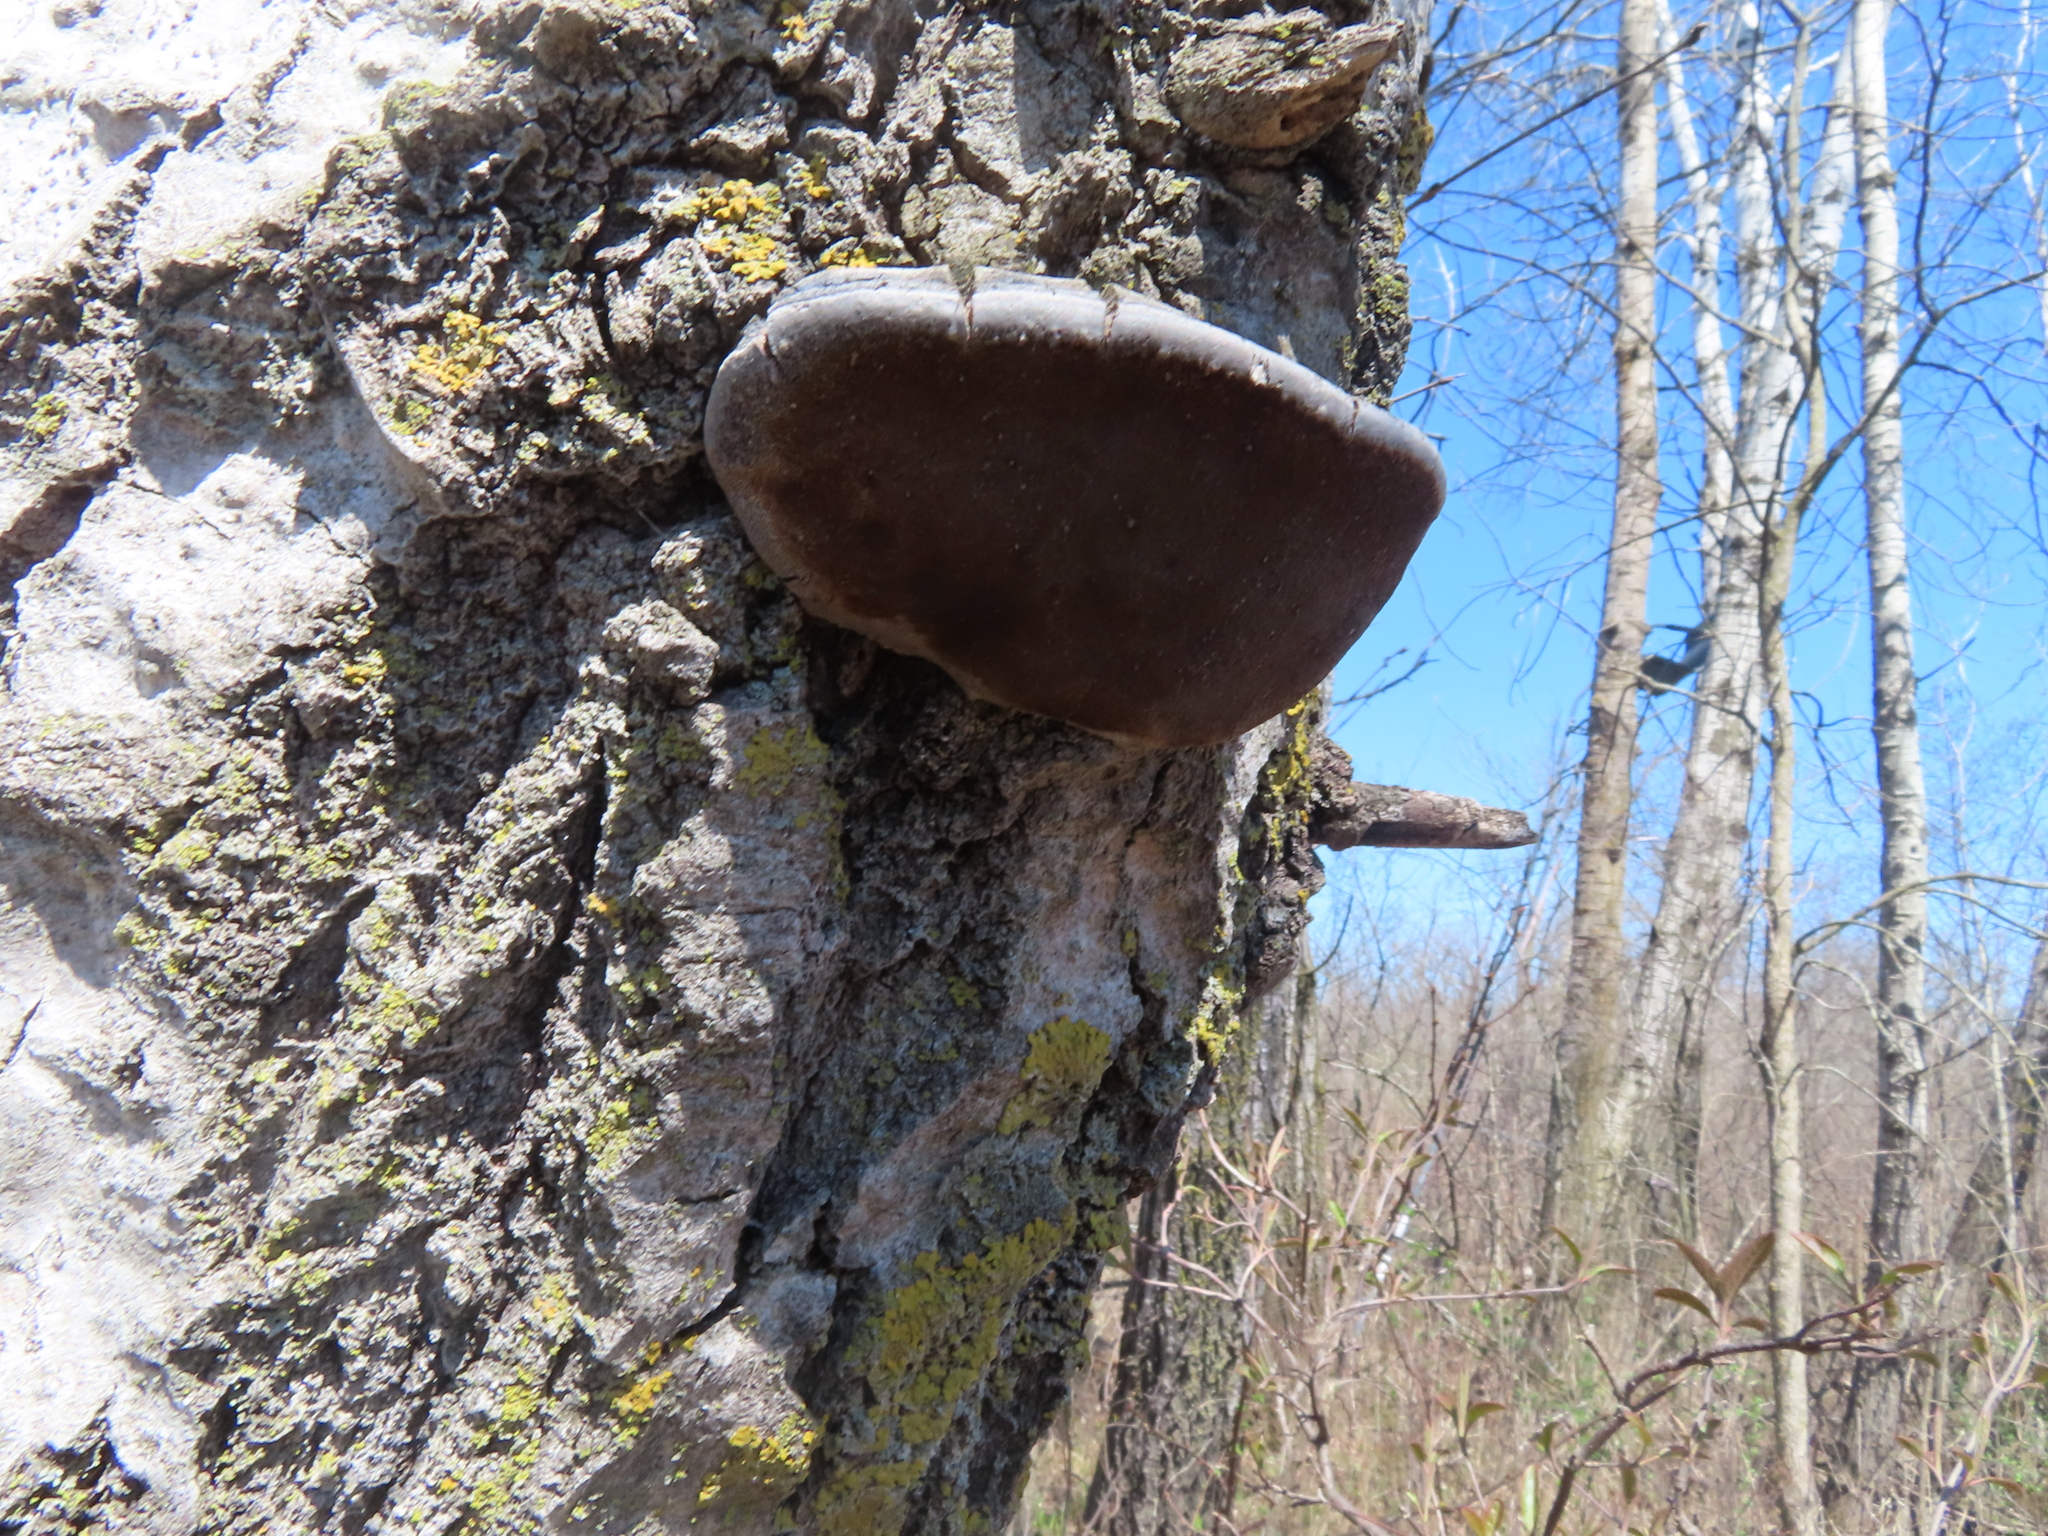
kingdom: Fungi
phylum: Basidiomycota
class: Agaricomycetes
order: Hymenochaetales
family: Hymenochaetaceae
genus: Phellinus
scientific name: Phellinus tremulae
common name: Aspen bracket
